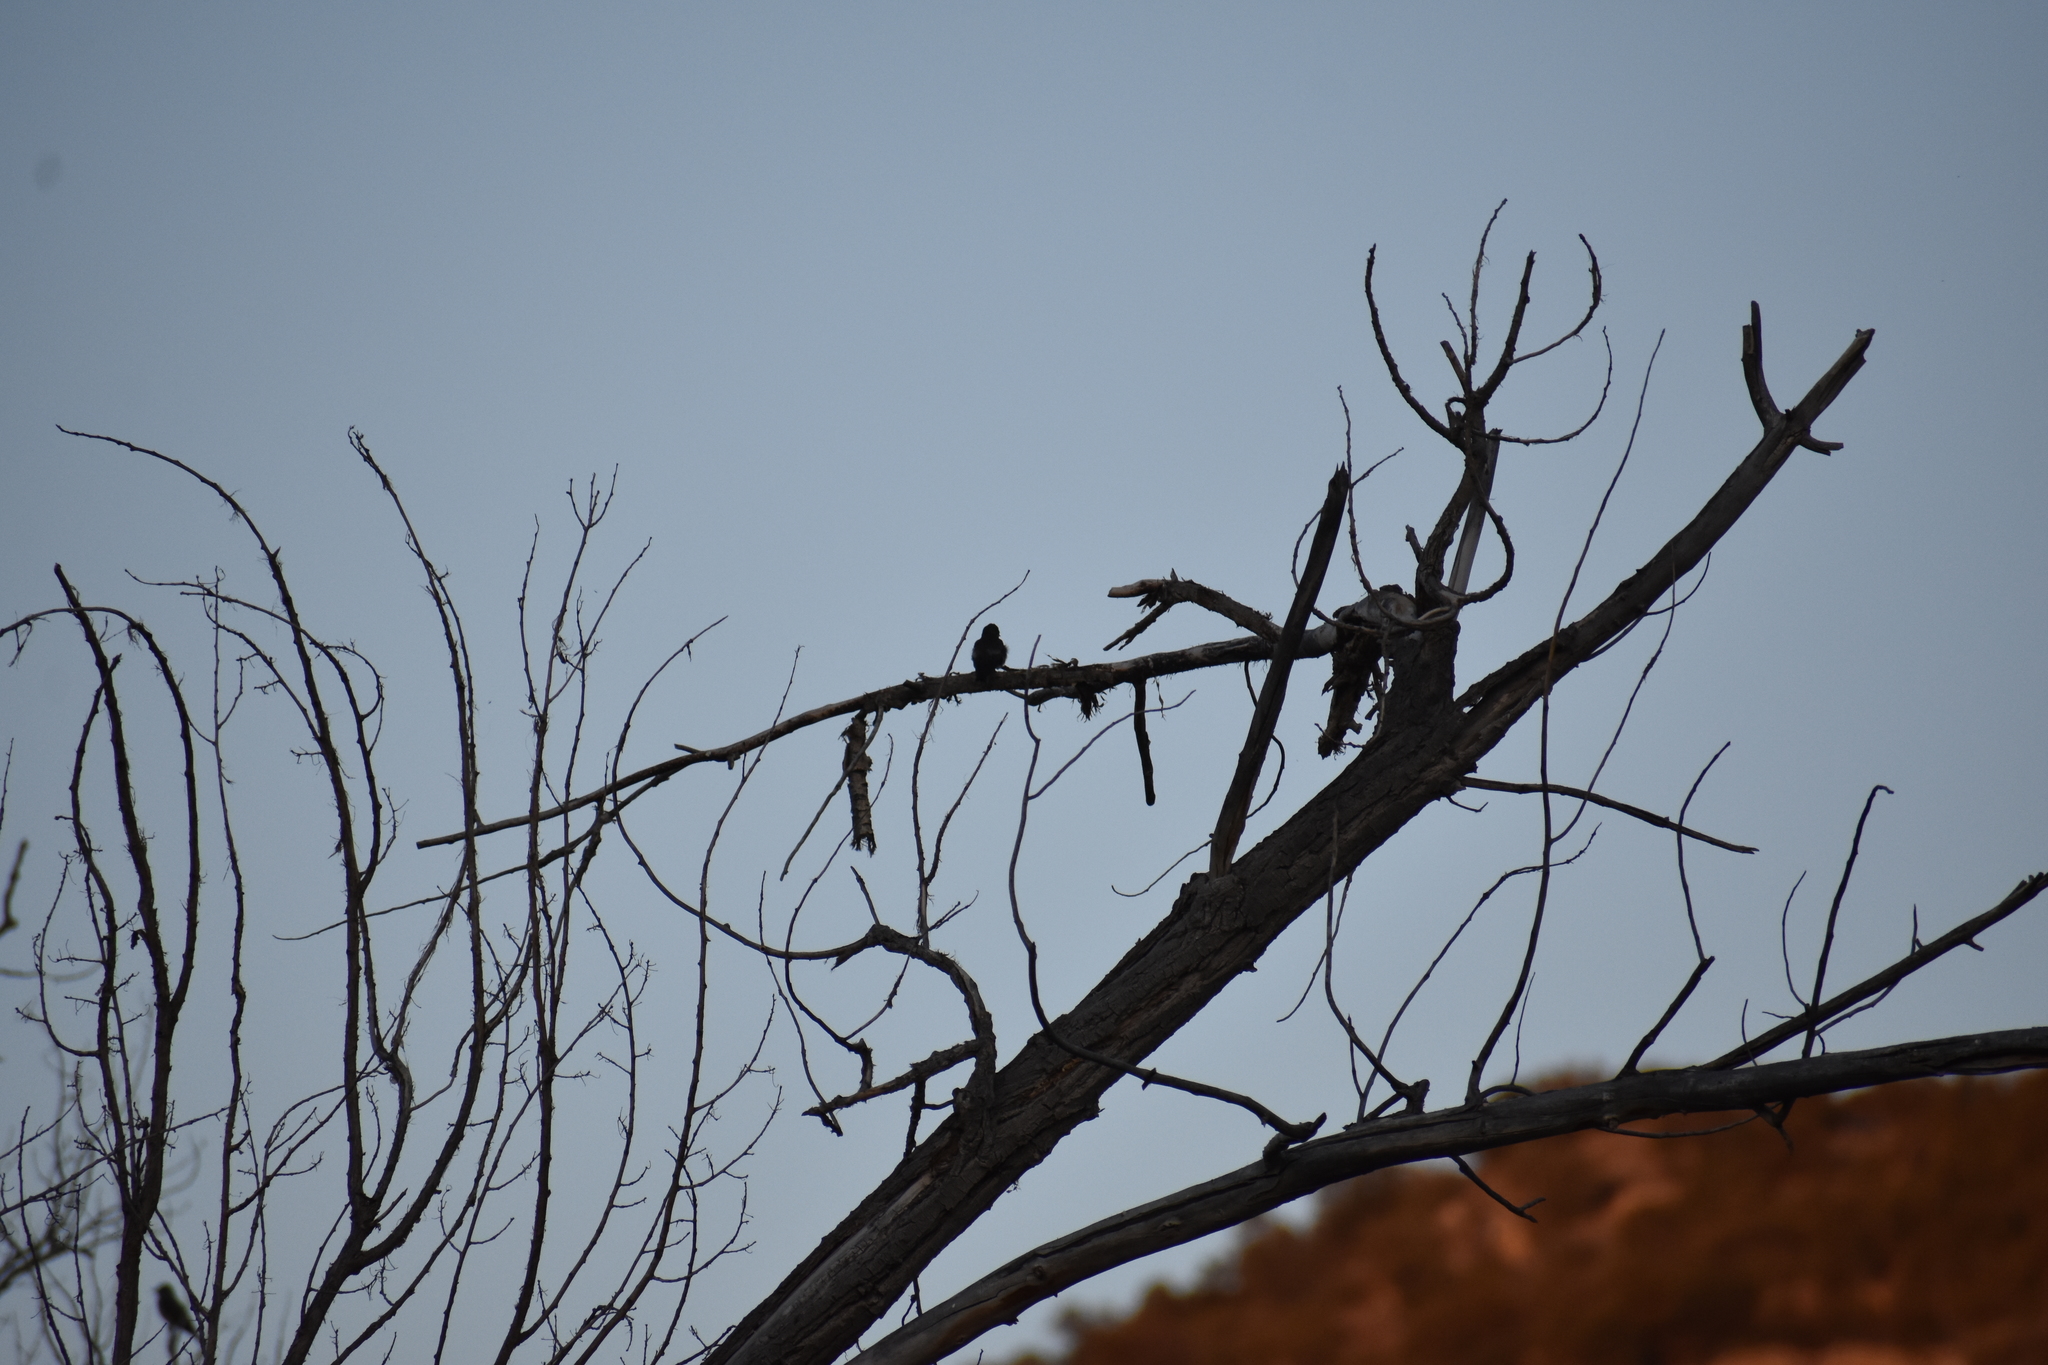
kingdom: Animalia
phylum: Chordata
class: Aves
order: Passeriformes
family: Fringillidae
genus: Hesperiphona
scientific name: Hesperiphona vespertina
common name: Evening grosbeak
